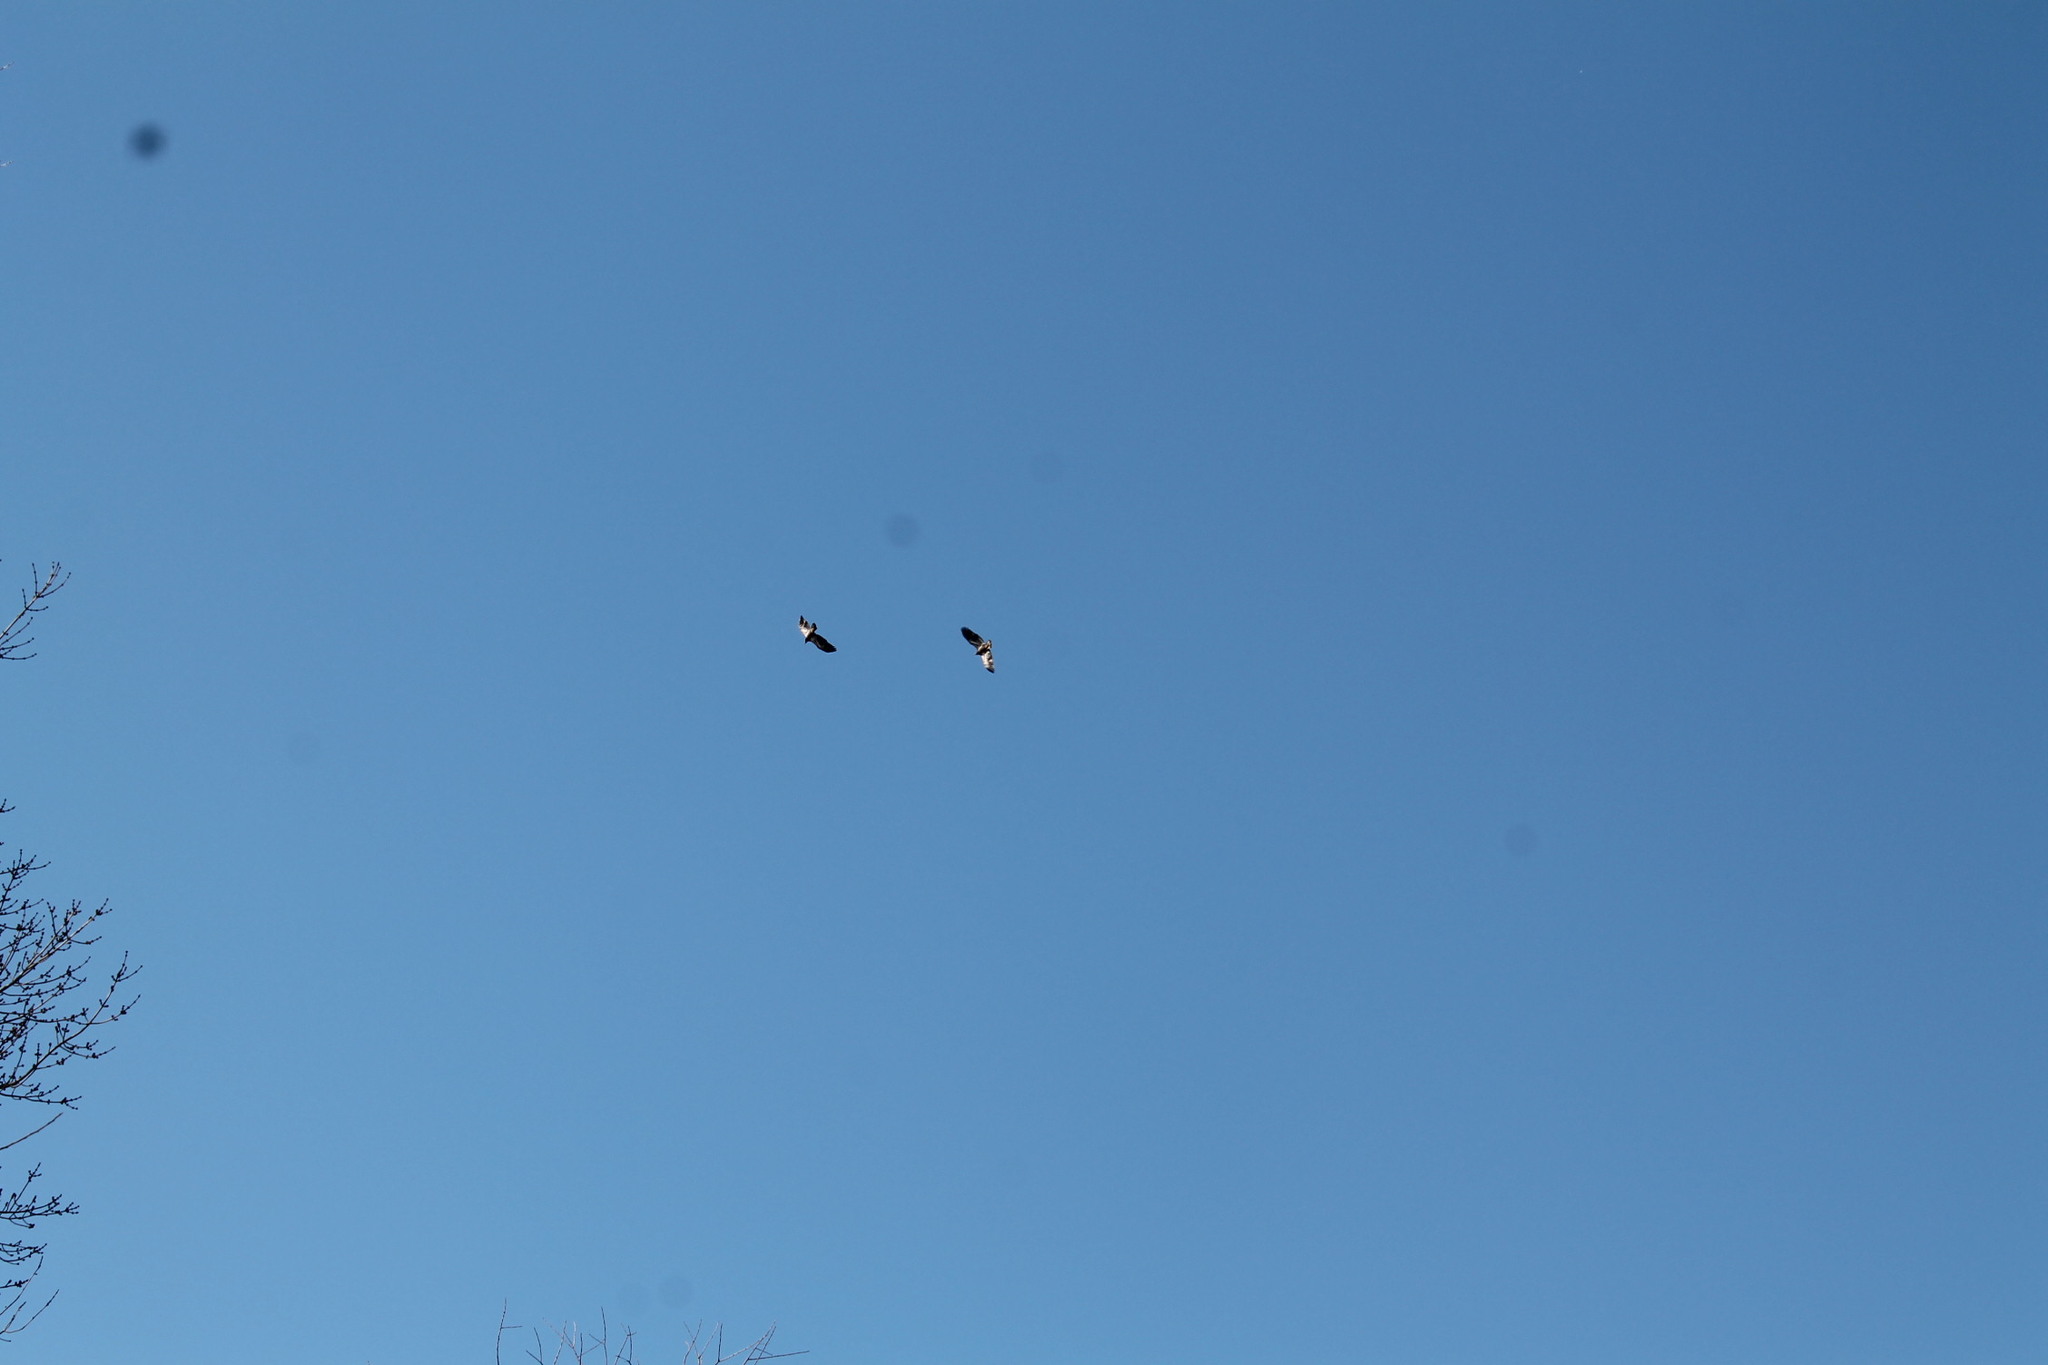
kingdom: Animalia
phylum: Chordata
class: Aves
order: Accipitriformes
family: Accipitridae
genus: Buteo
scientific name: Buteo jamaicensis
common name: Red-tailed hawk
